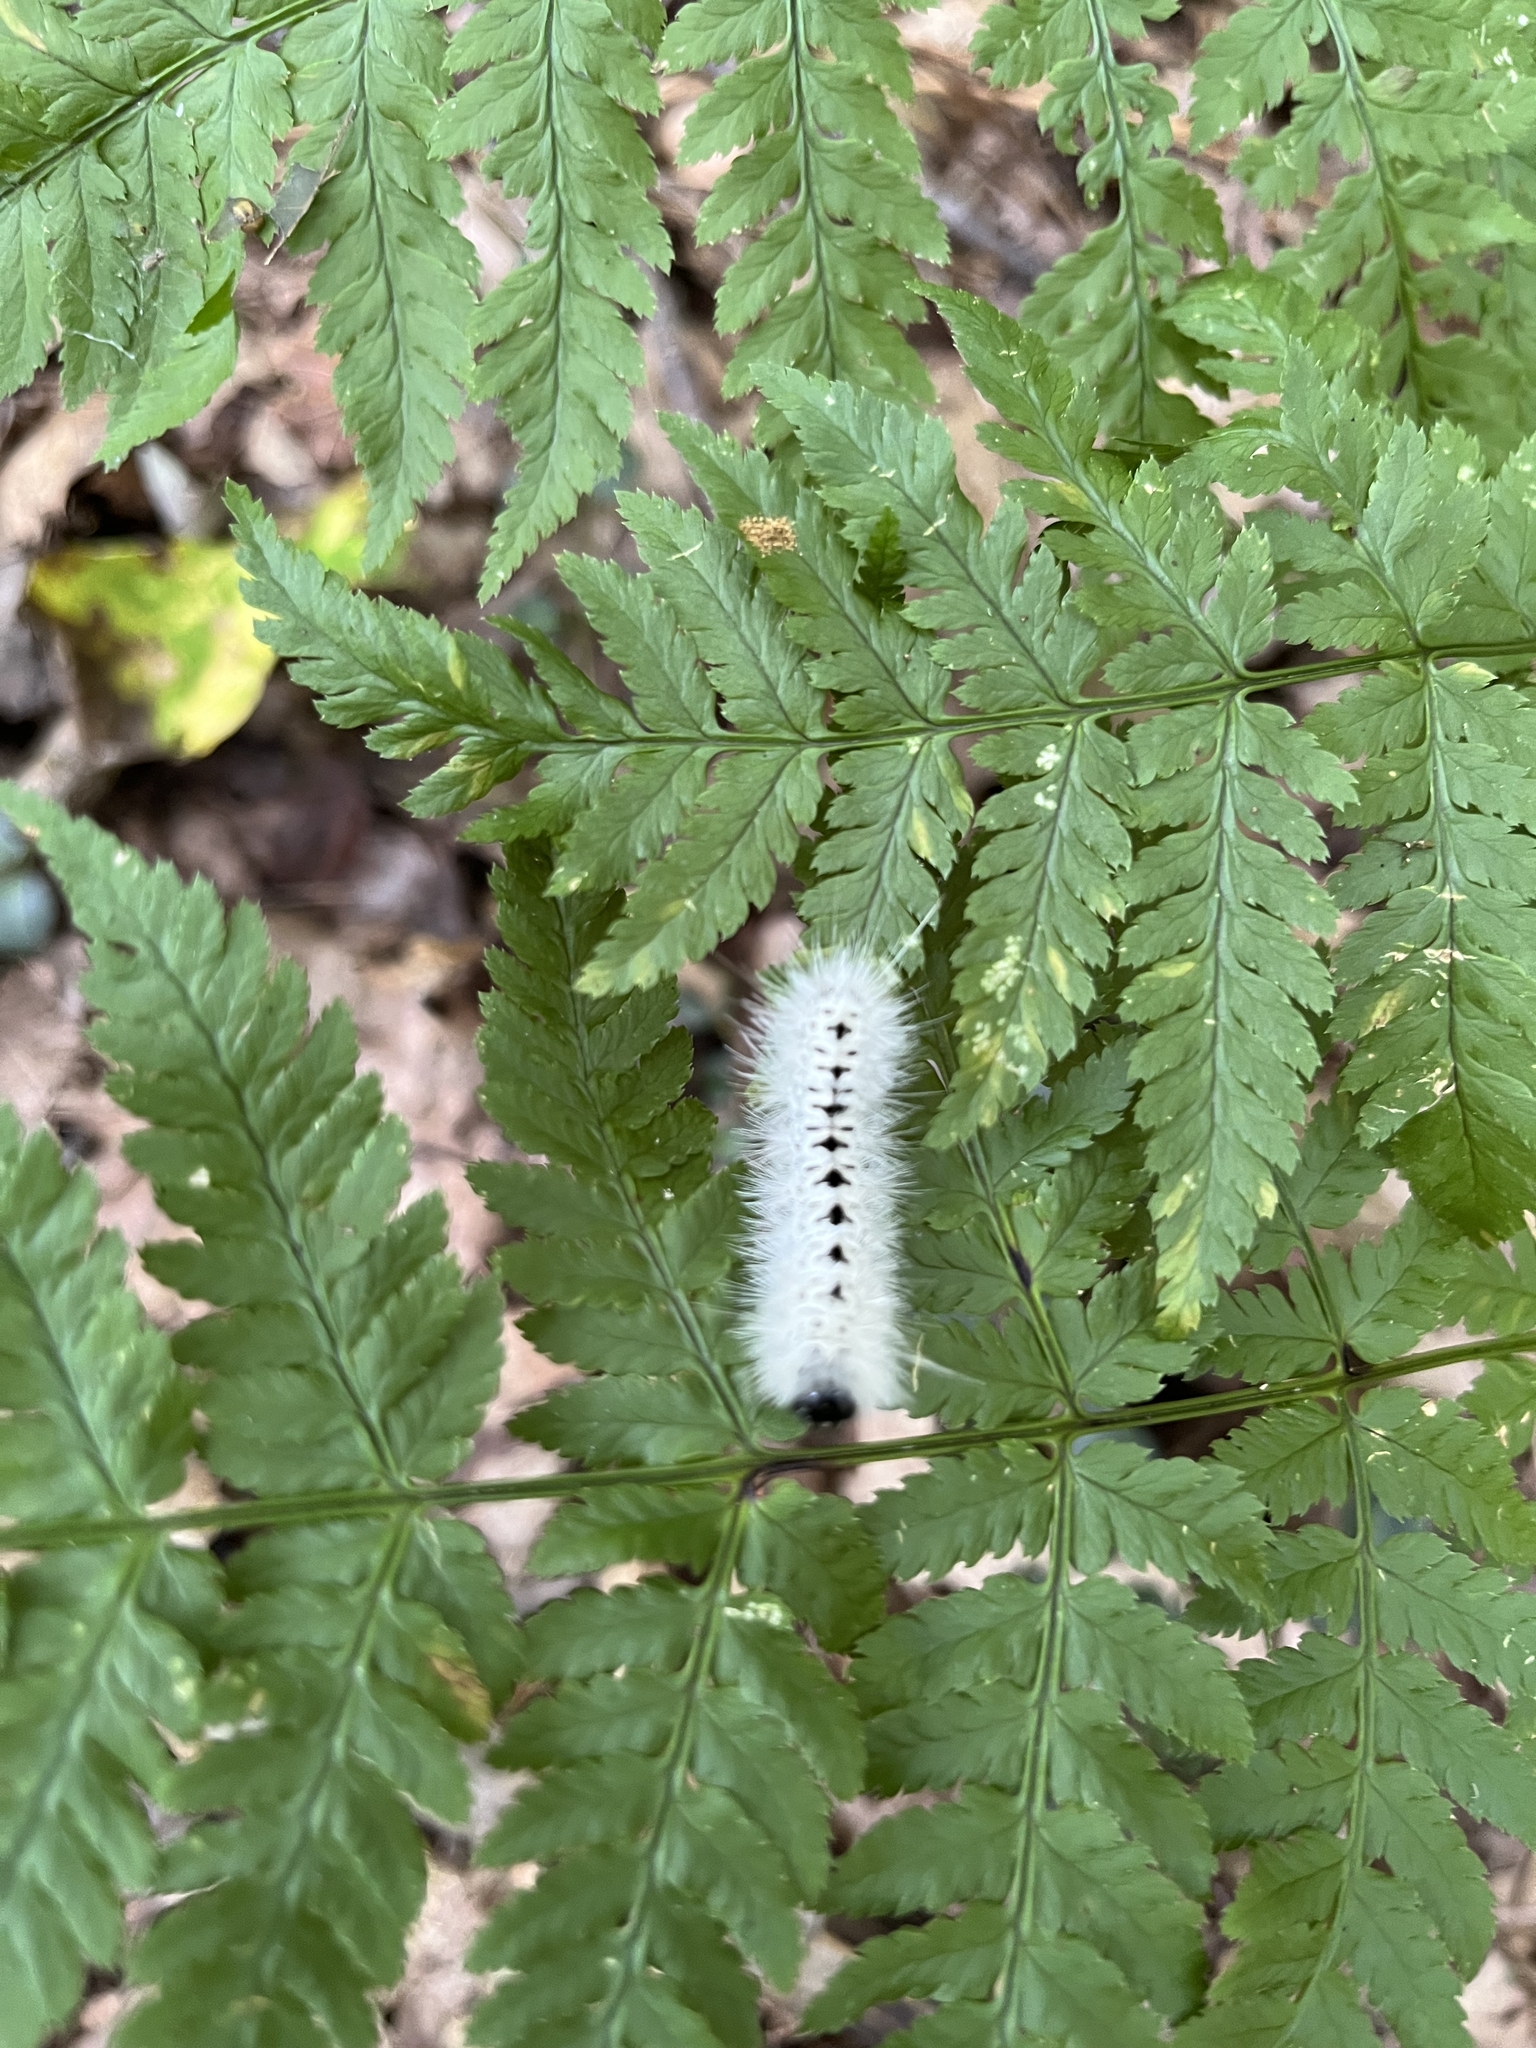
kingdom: Animalia
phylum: Arthropoda
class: Insecta
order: Lepidoptera
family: Erebidae
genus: Lophocampa
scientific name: Lophocampa caryae
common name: Hickory tussock moth
